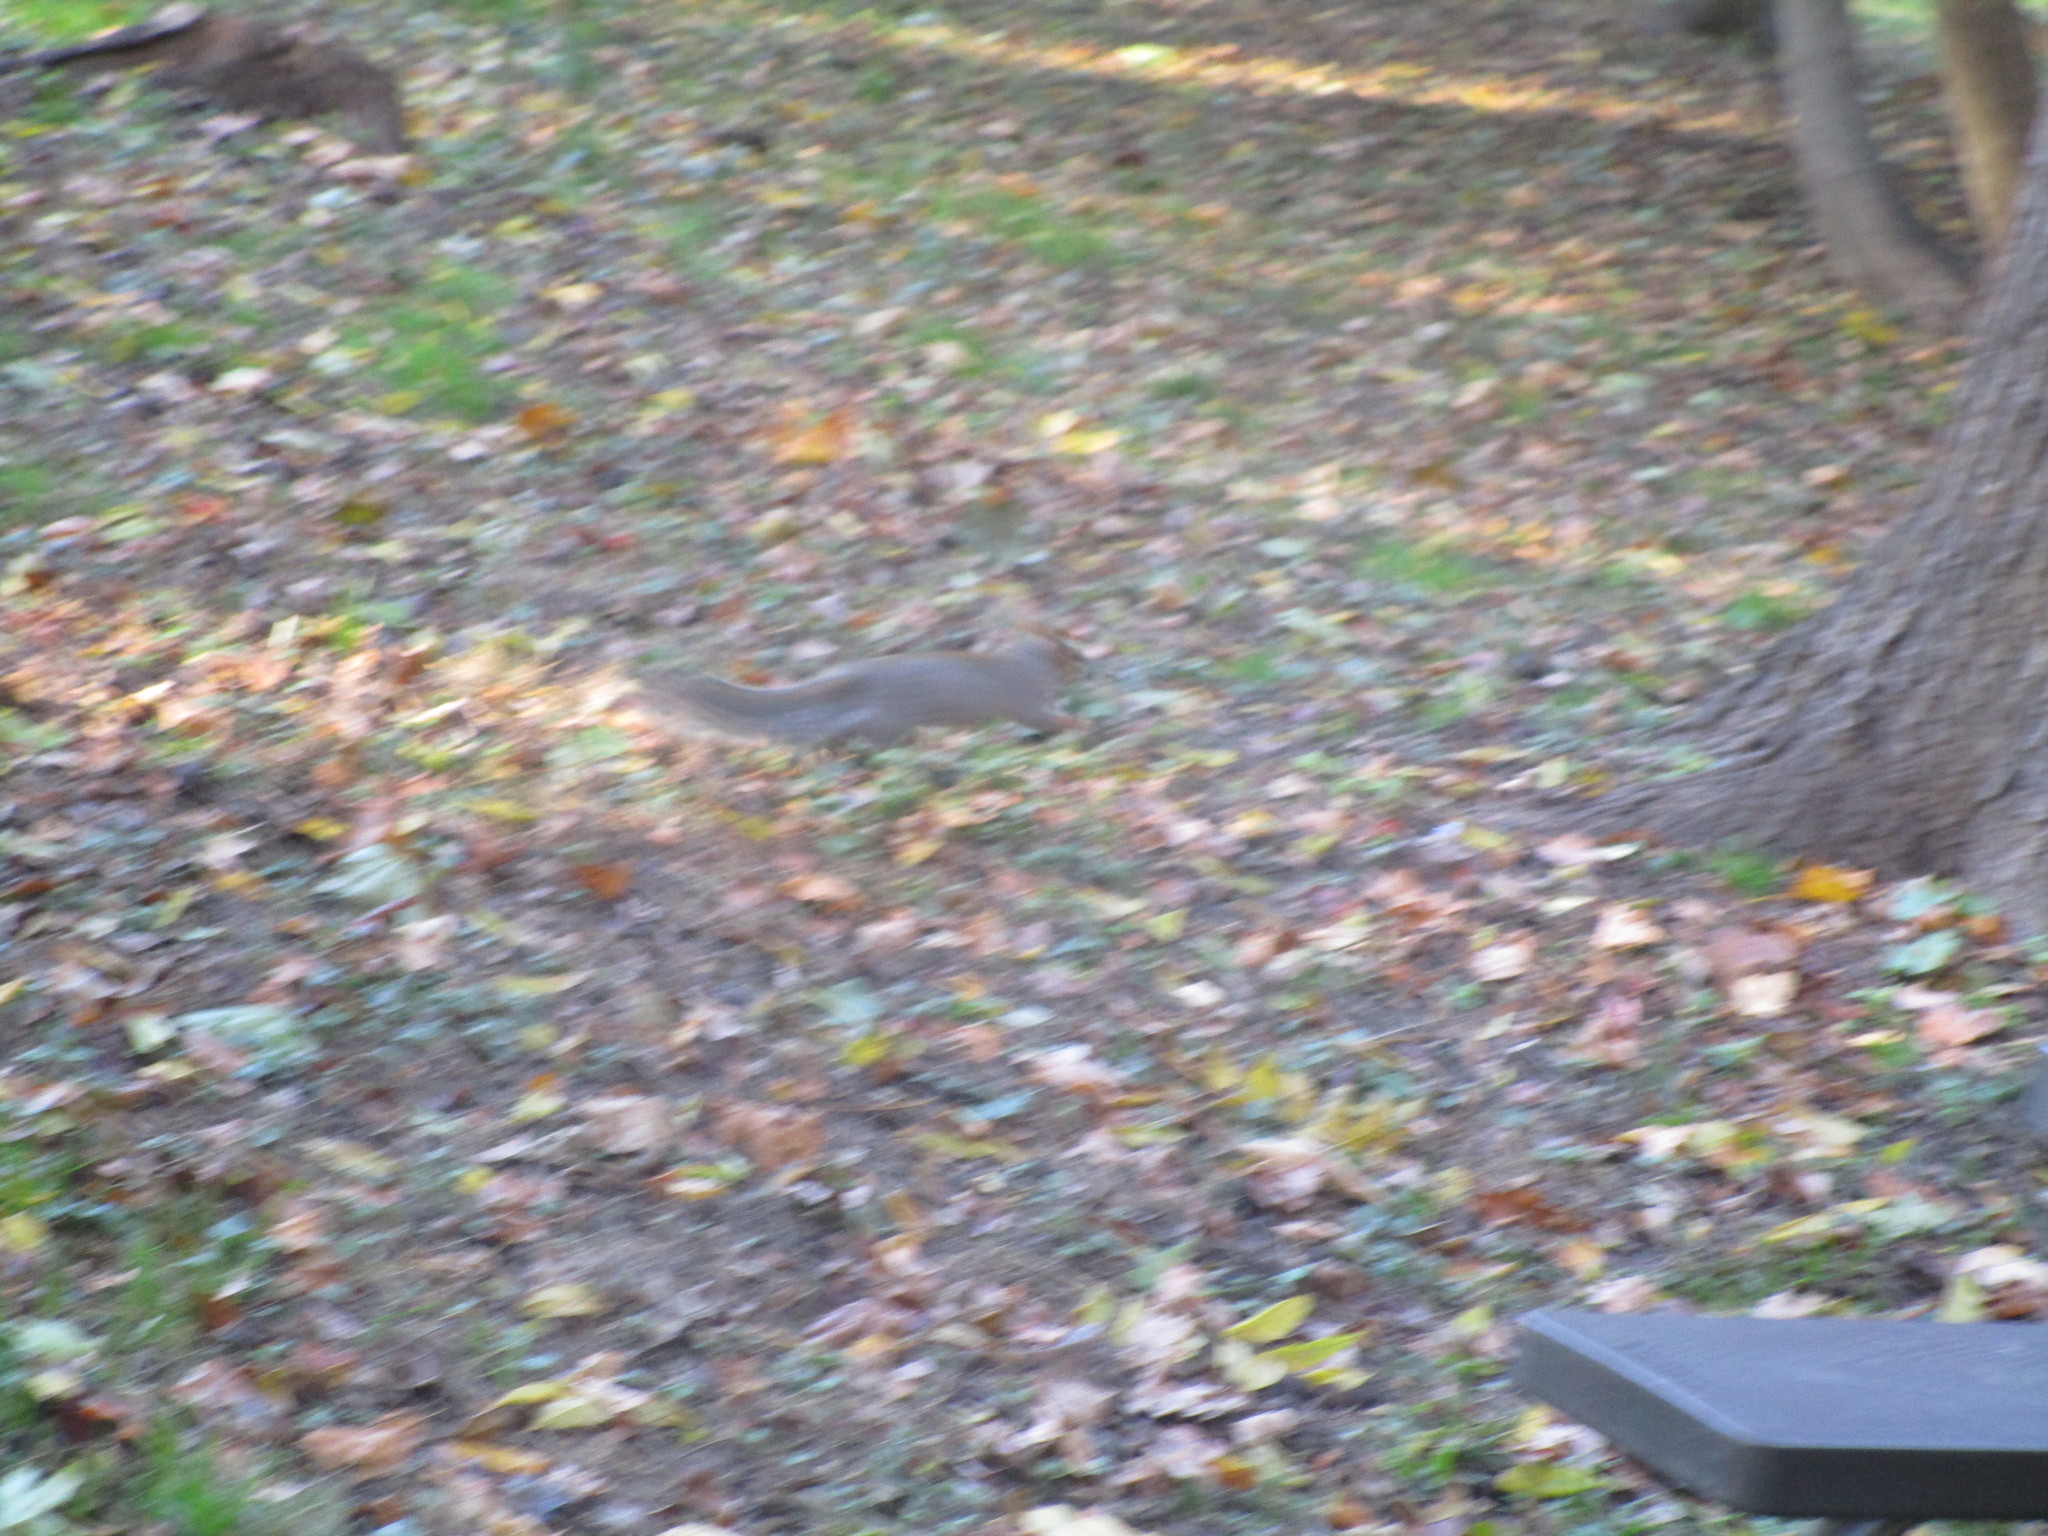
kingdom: Animalia
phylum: Chordata
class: Mammalia
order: Rodentia
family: Sciuridae
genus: Sciurus
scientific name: Sciurus carolinensis
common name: Eastern gray squirrel
